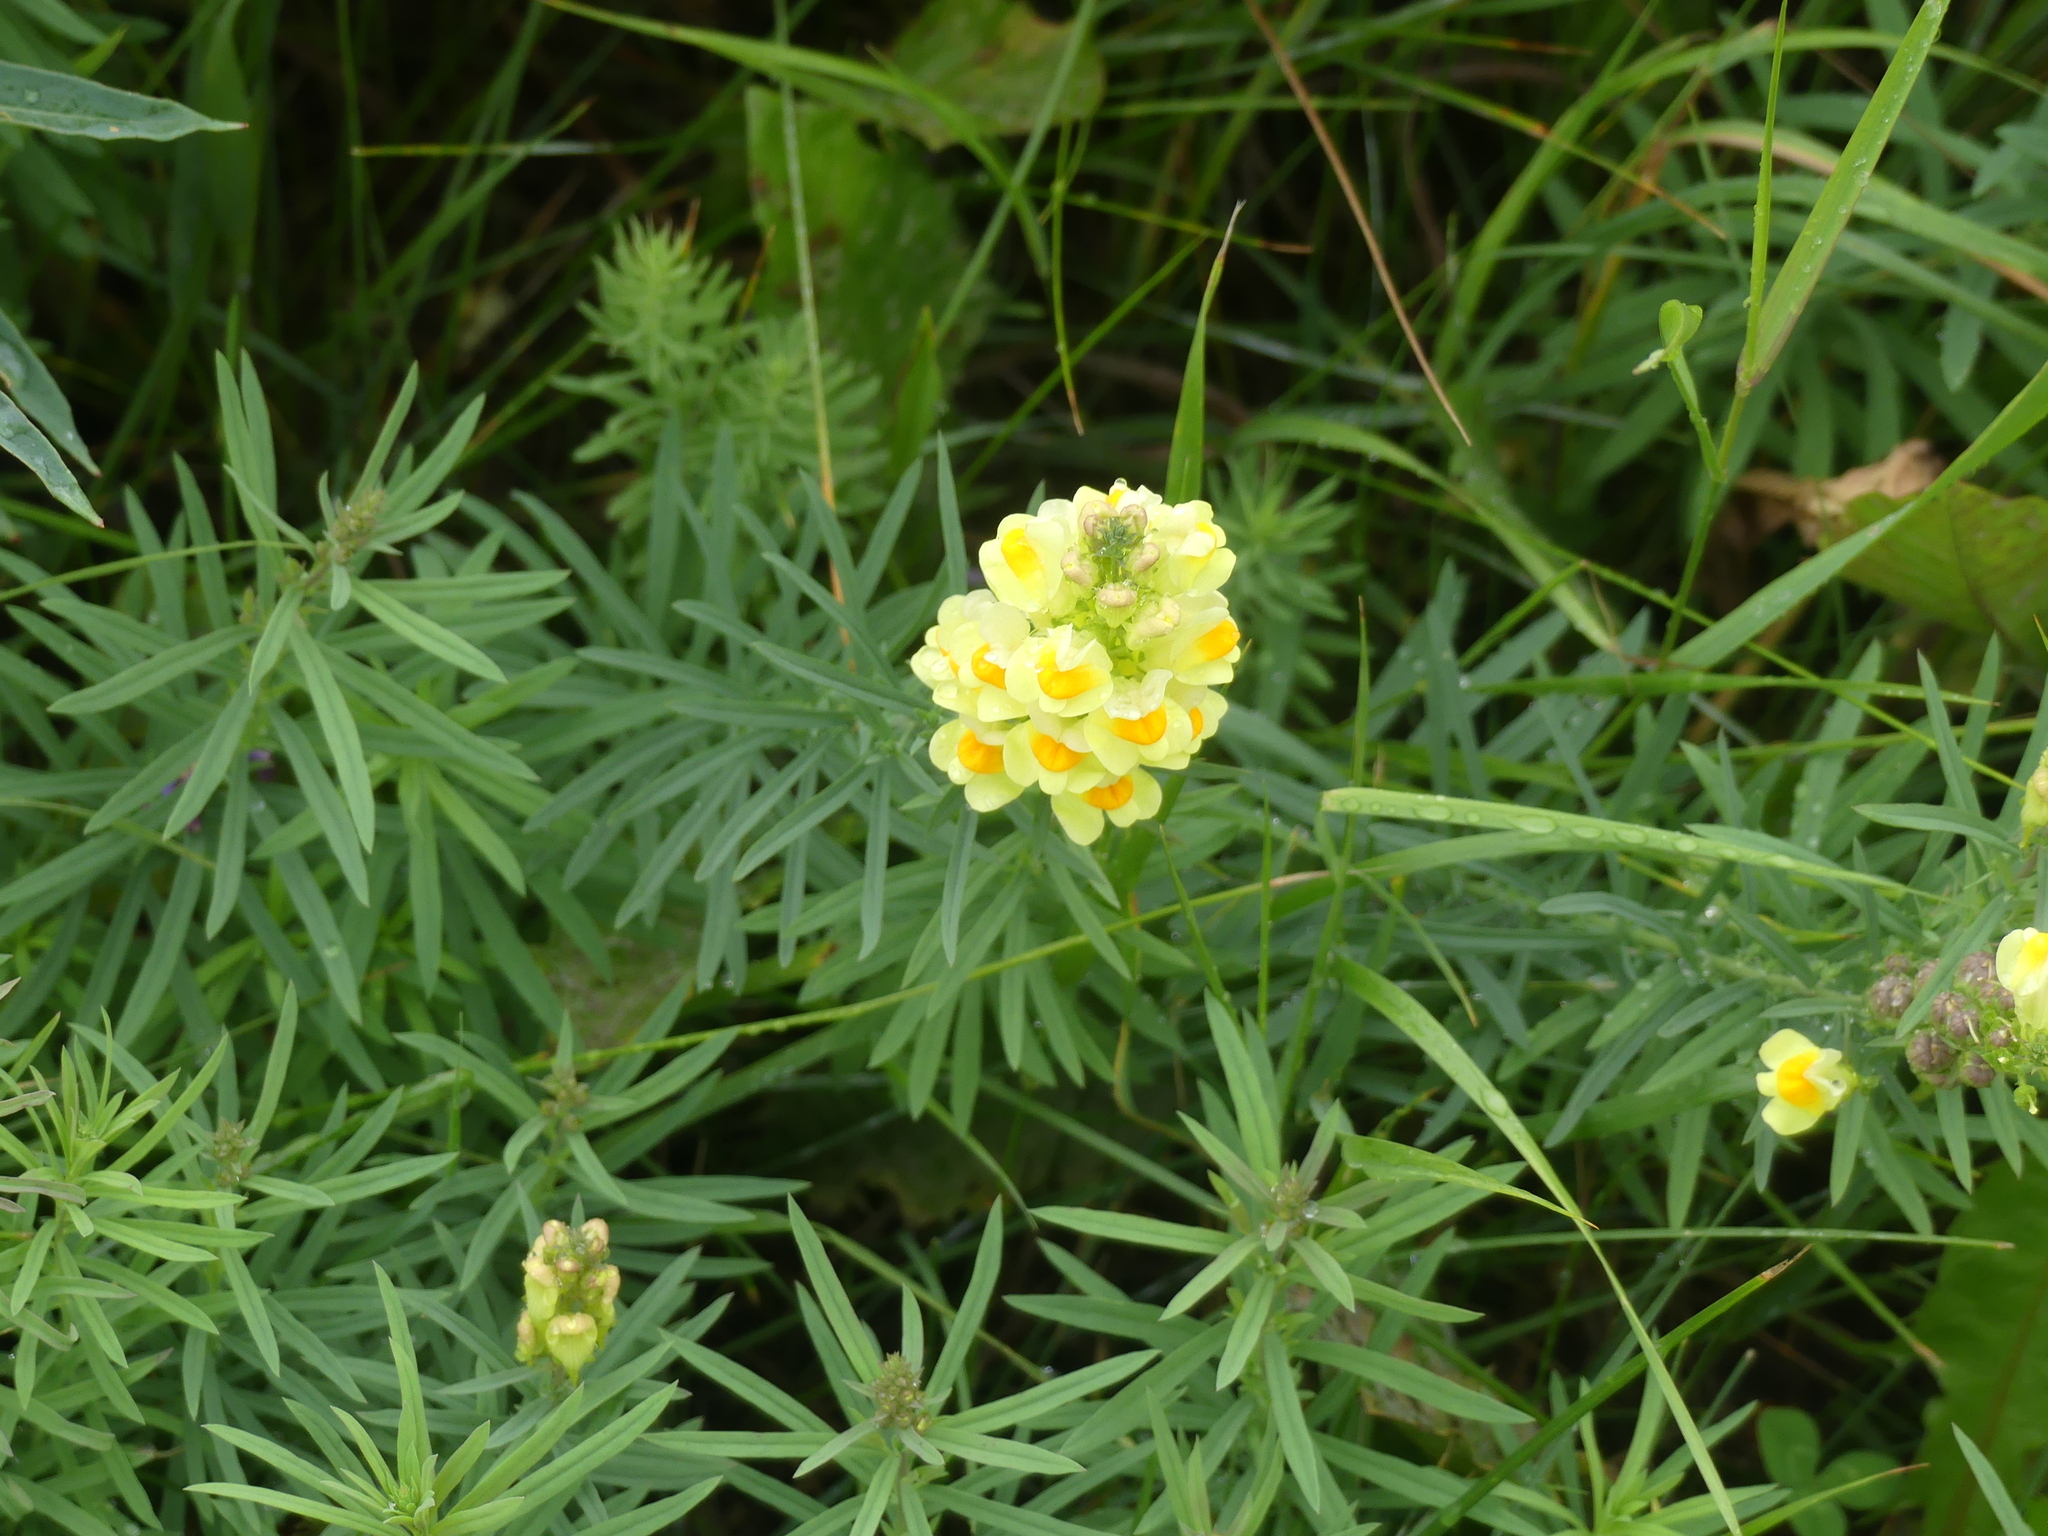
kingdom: Plantae
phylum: Tracheophyta
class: Magnoliopsida
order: Lamiales
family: Plantaginaceae
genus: Linaria
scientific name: Linaria vulgaris
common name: Butter and eggs
